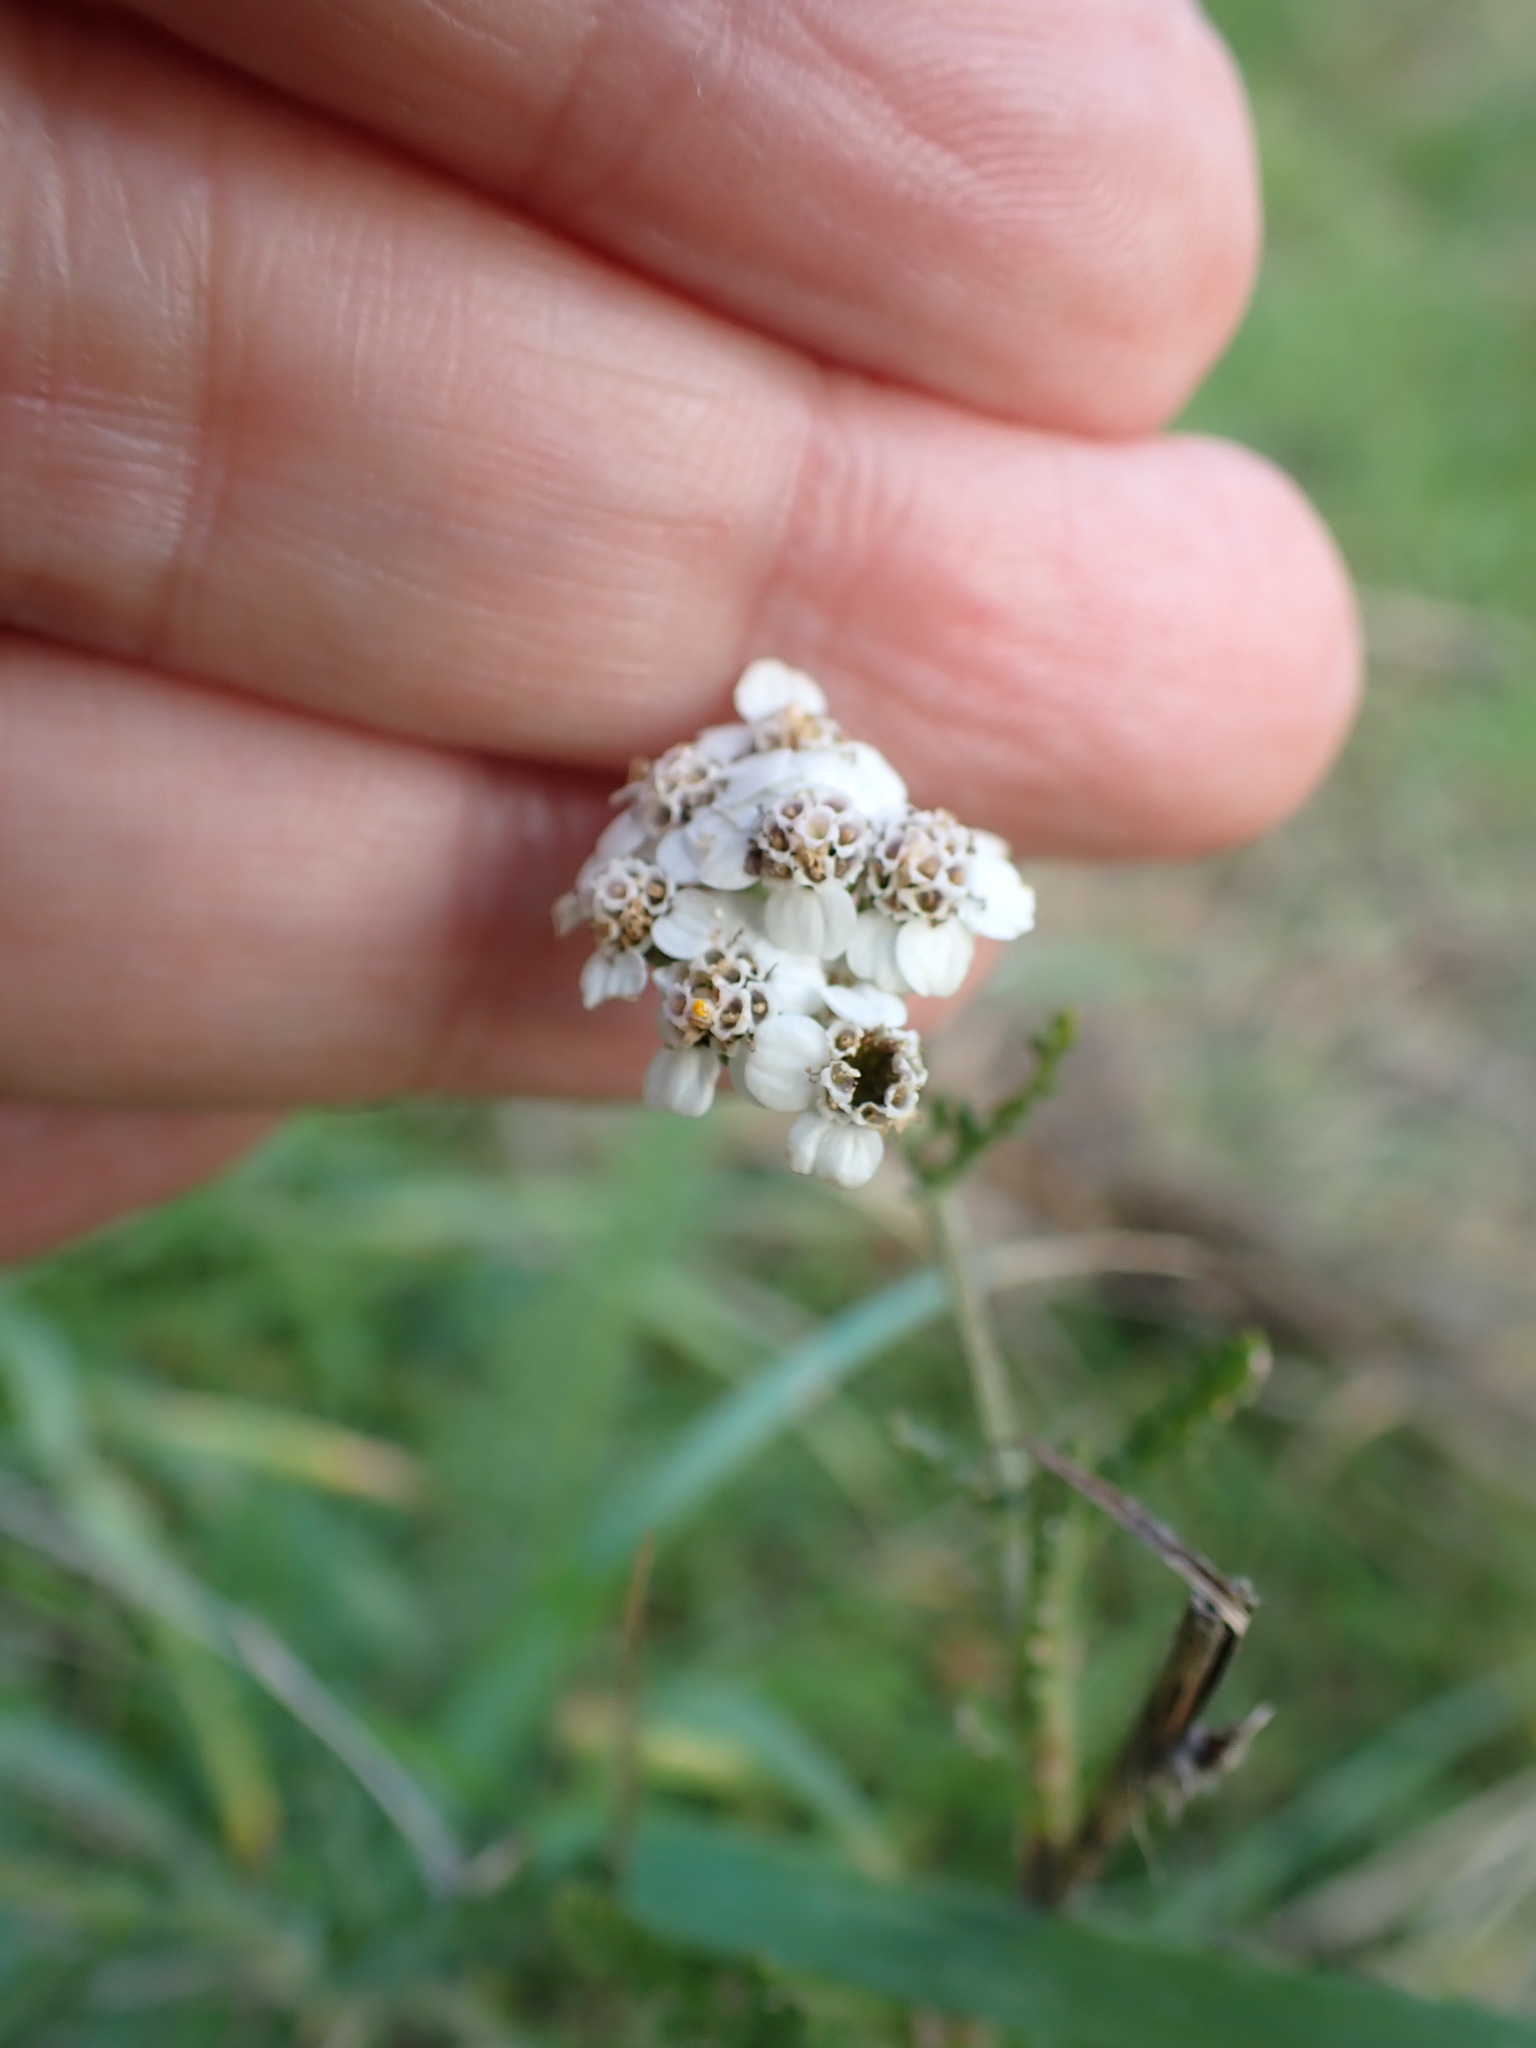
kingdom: Plantae
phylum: Tracheophyta
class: Magnoliopsida
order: Asterales
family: Asteraceae
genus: Achillea
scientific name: Achillea millefolium
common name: Yarrow
